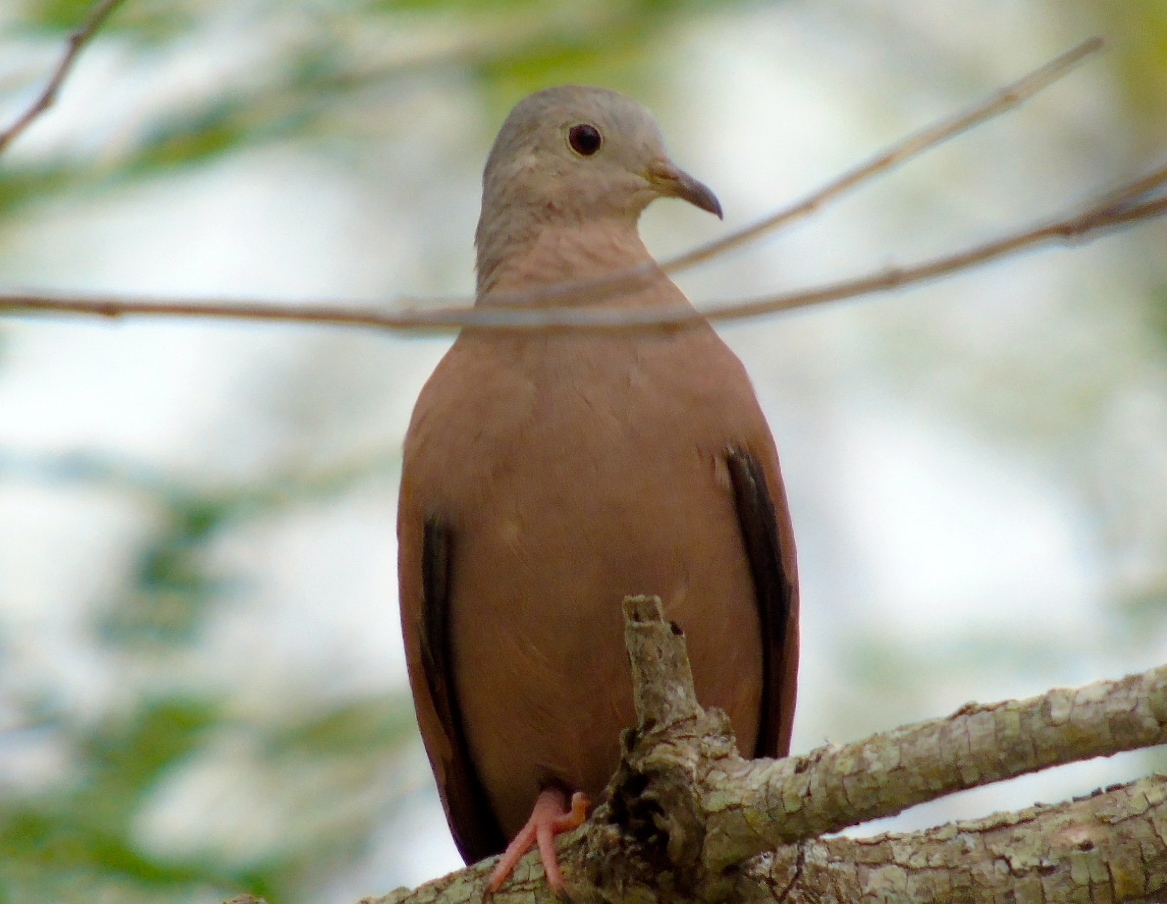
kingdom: Animalia
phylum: Chordata
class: Aves
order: Columbiformes
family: Columbidae
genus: Columbina
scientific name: Columbina talpacoti
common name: Ruddy ground dove
